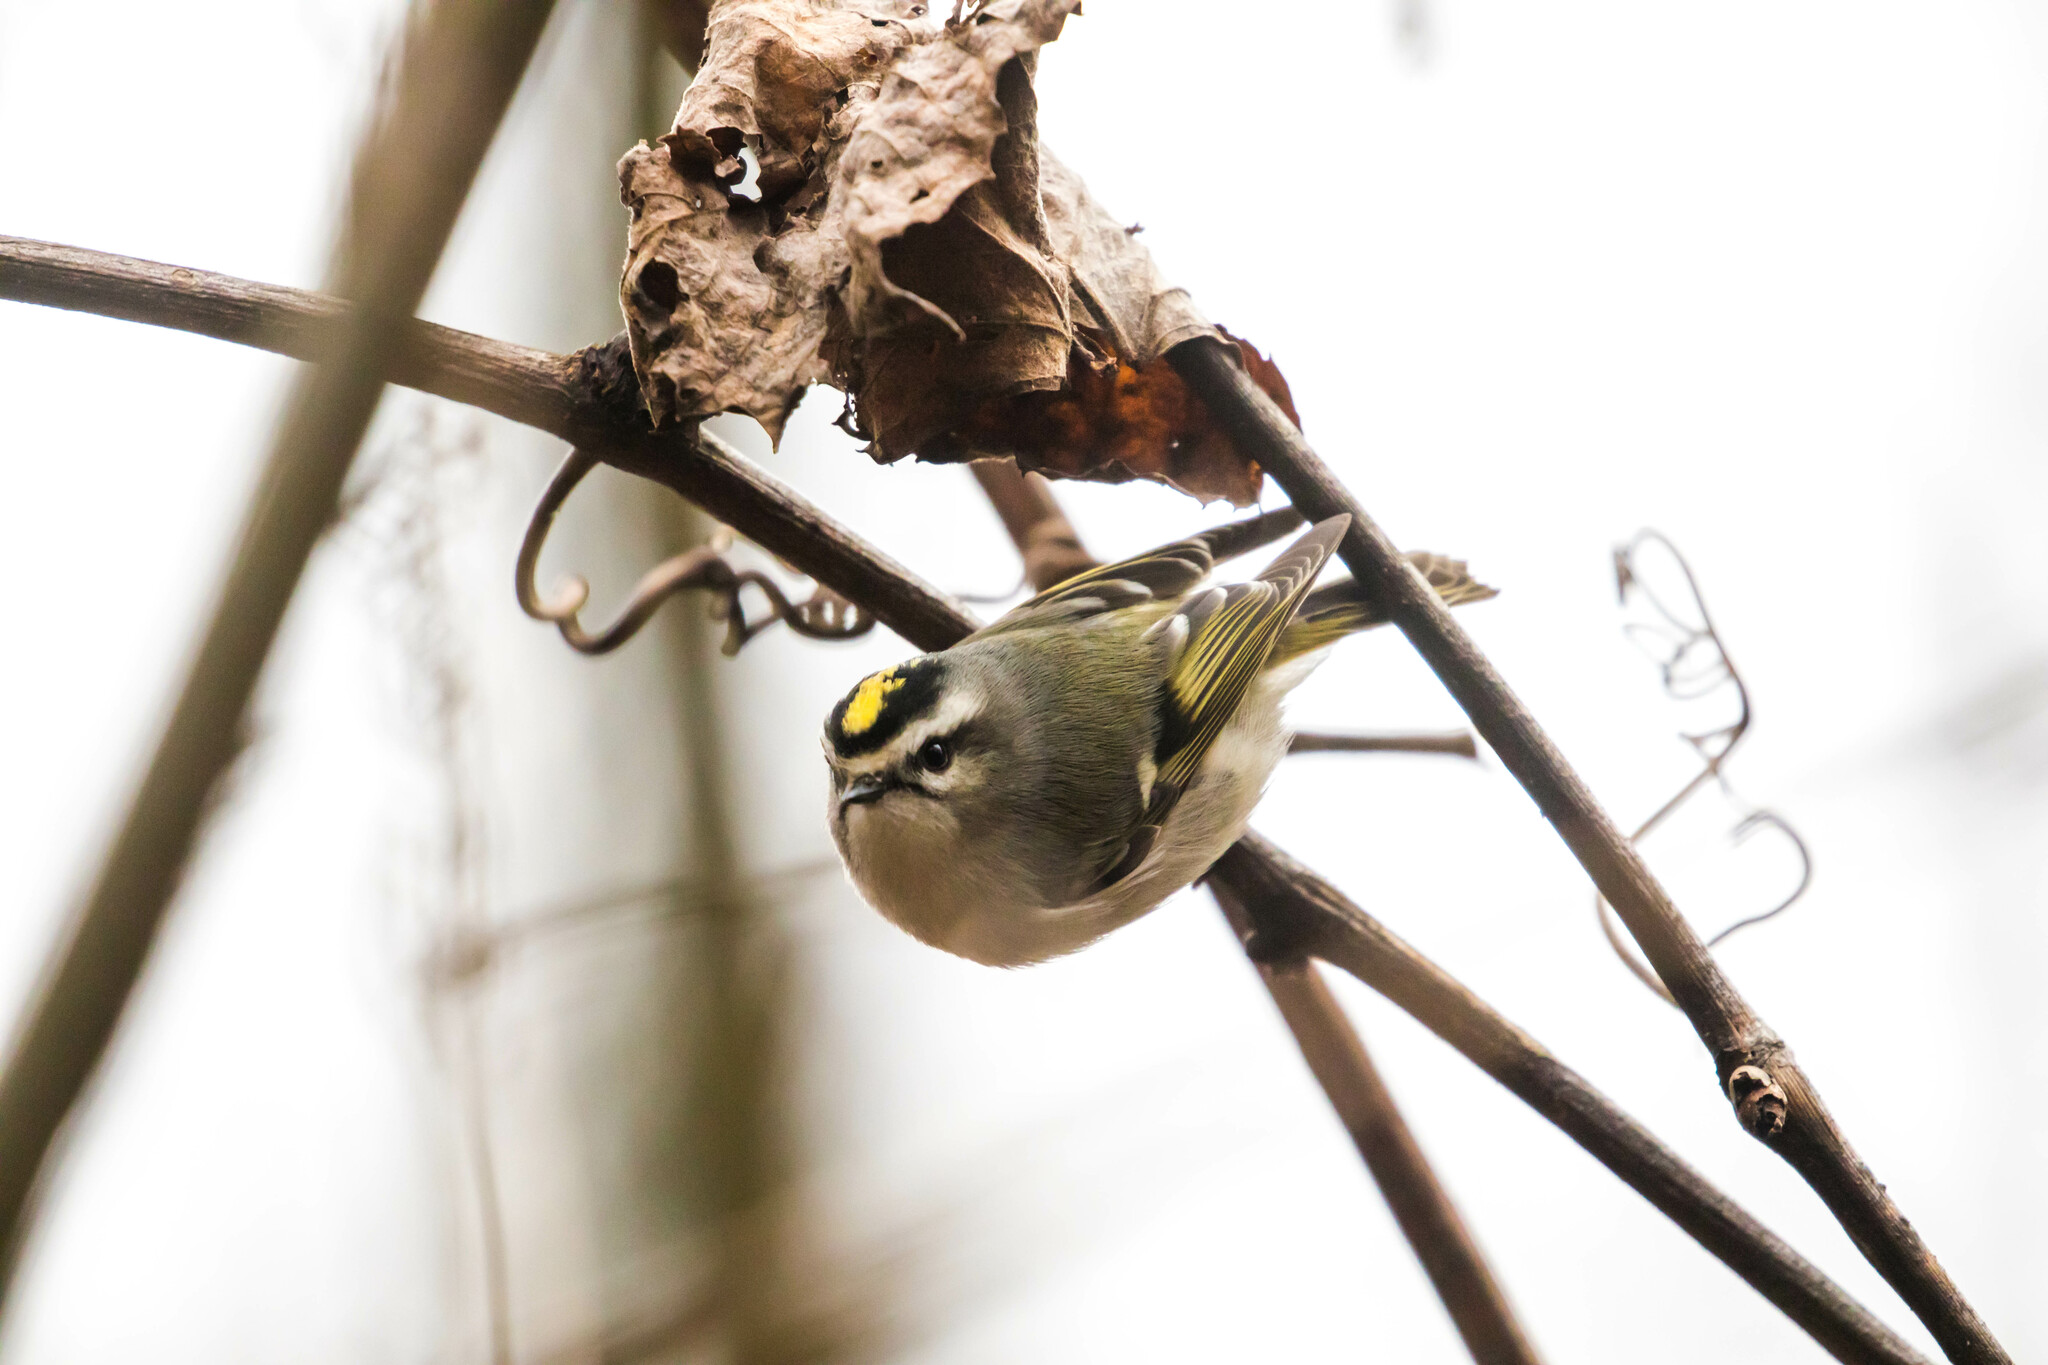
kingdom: Animalia
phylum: Chordata
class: Aves
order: Passeriformes
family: Regulidae
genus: Regulus
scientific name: Regulus satrapa
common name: Golden-crowned kinglet
